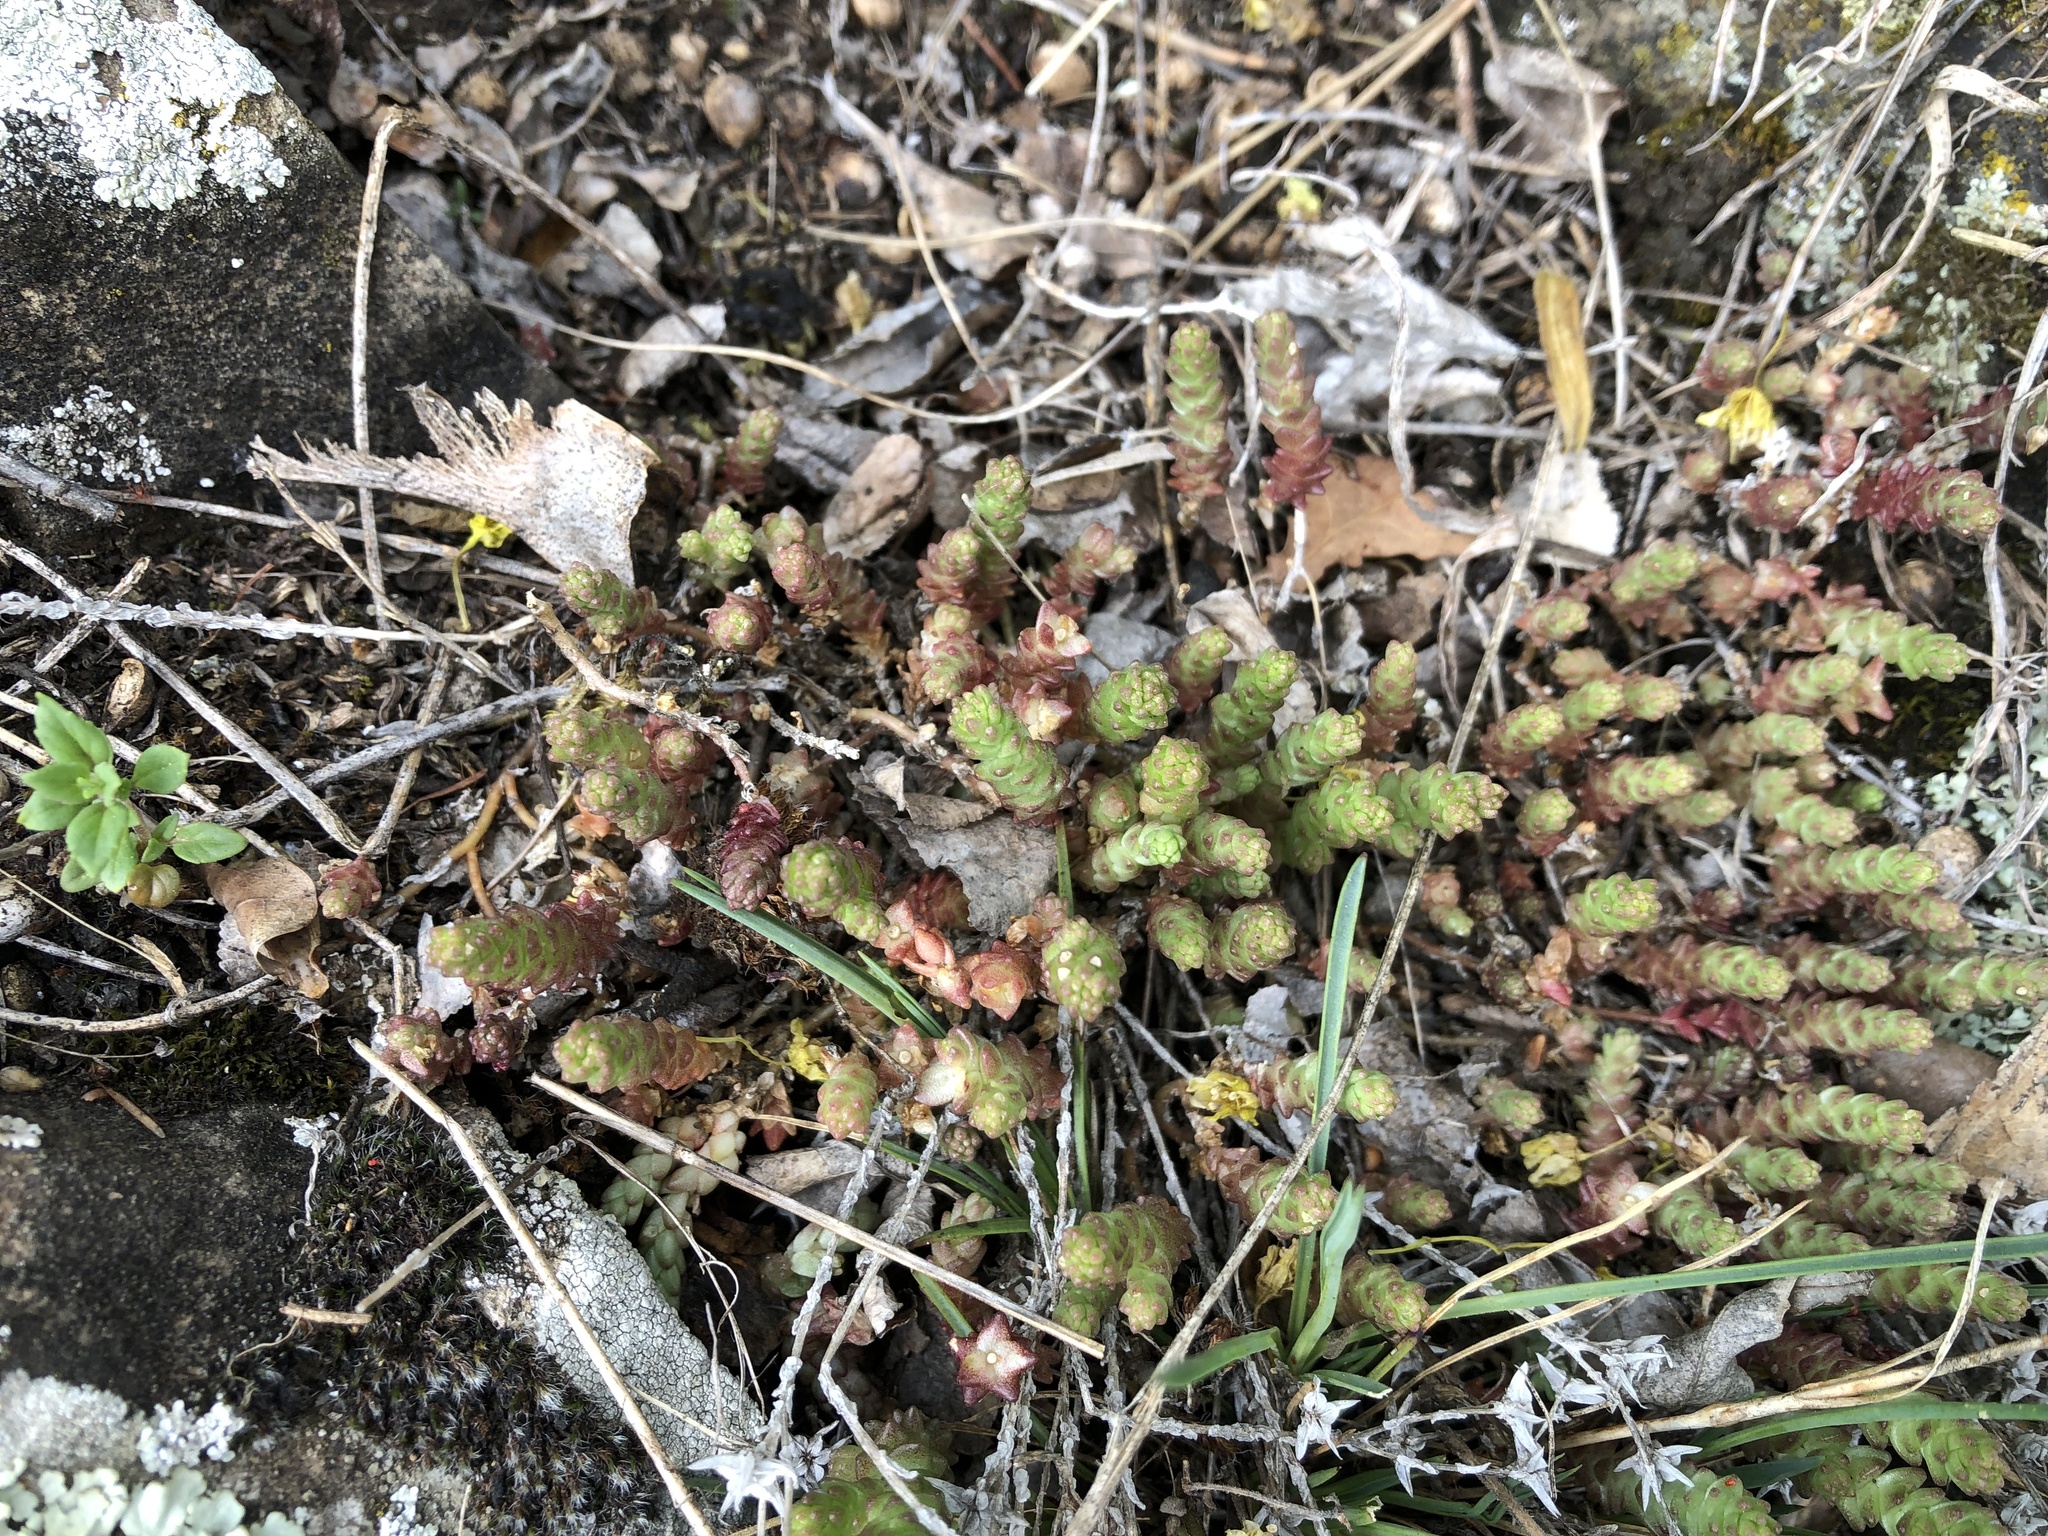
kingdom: Plantae
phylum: Tracheophyta
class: Magnoliopsida
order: Saxifragales
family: Crassulaceae
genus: Sedum
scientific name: Sedum acre
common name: Biting stonecrop
